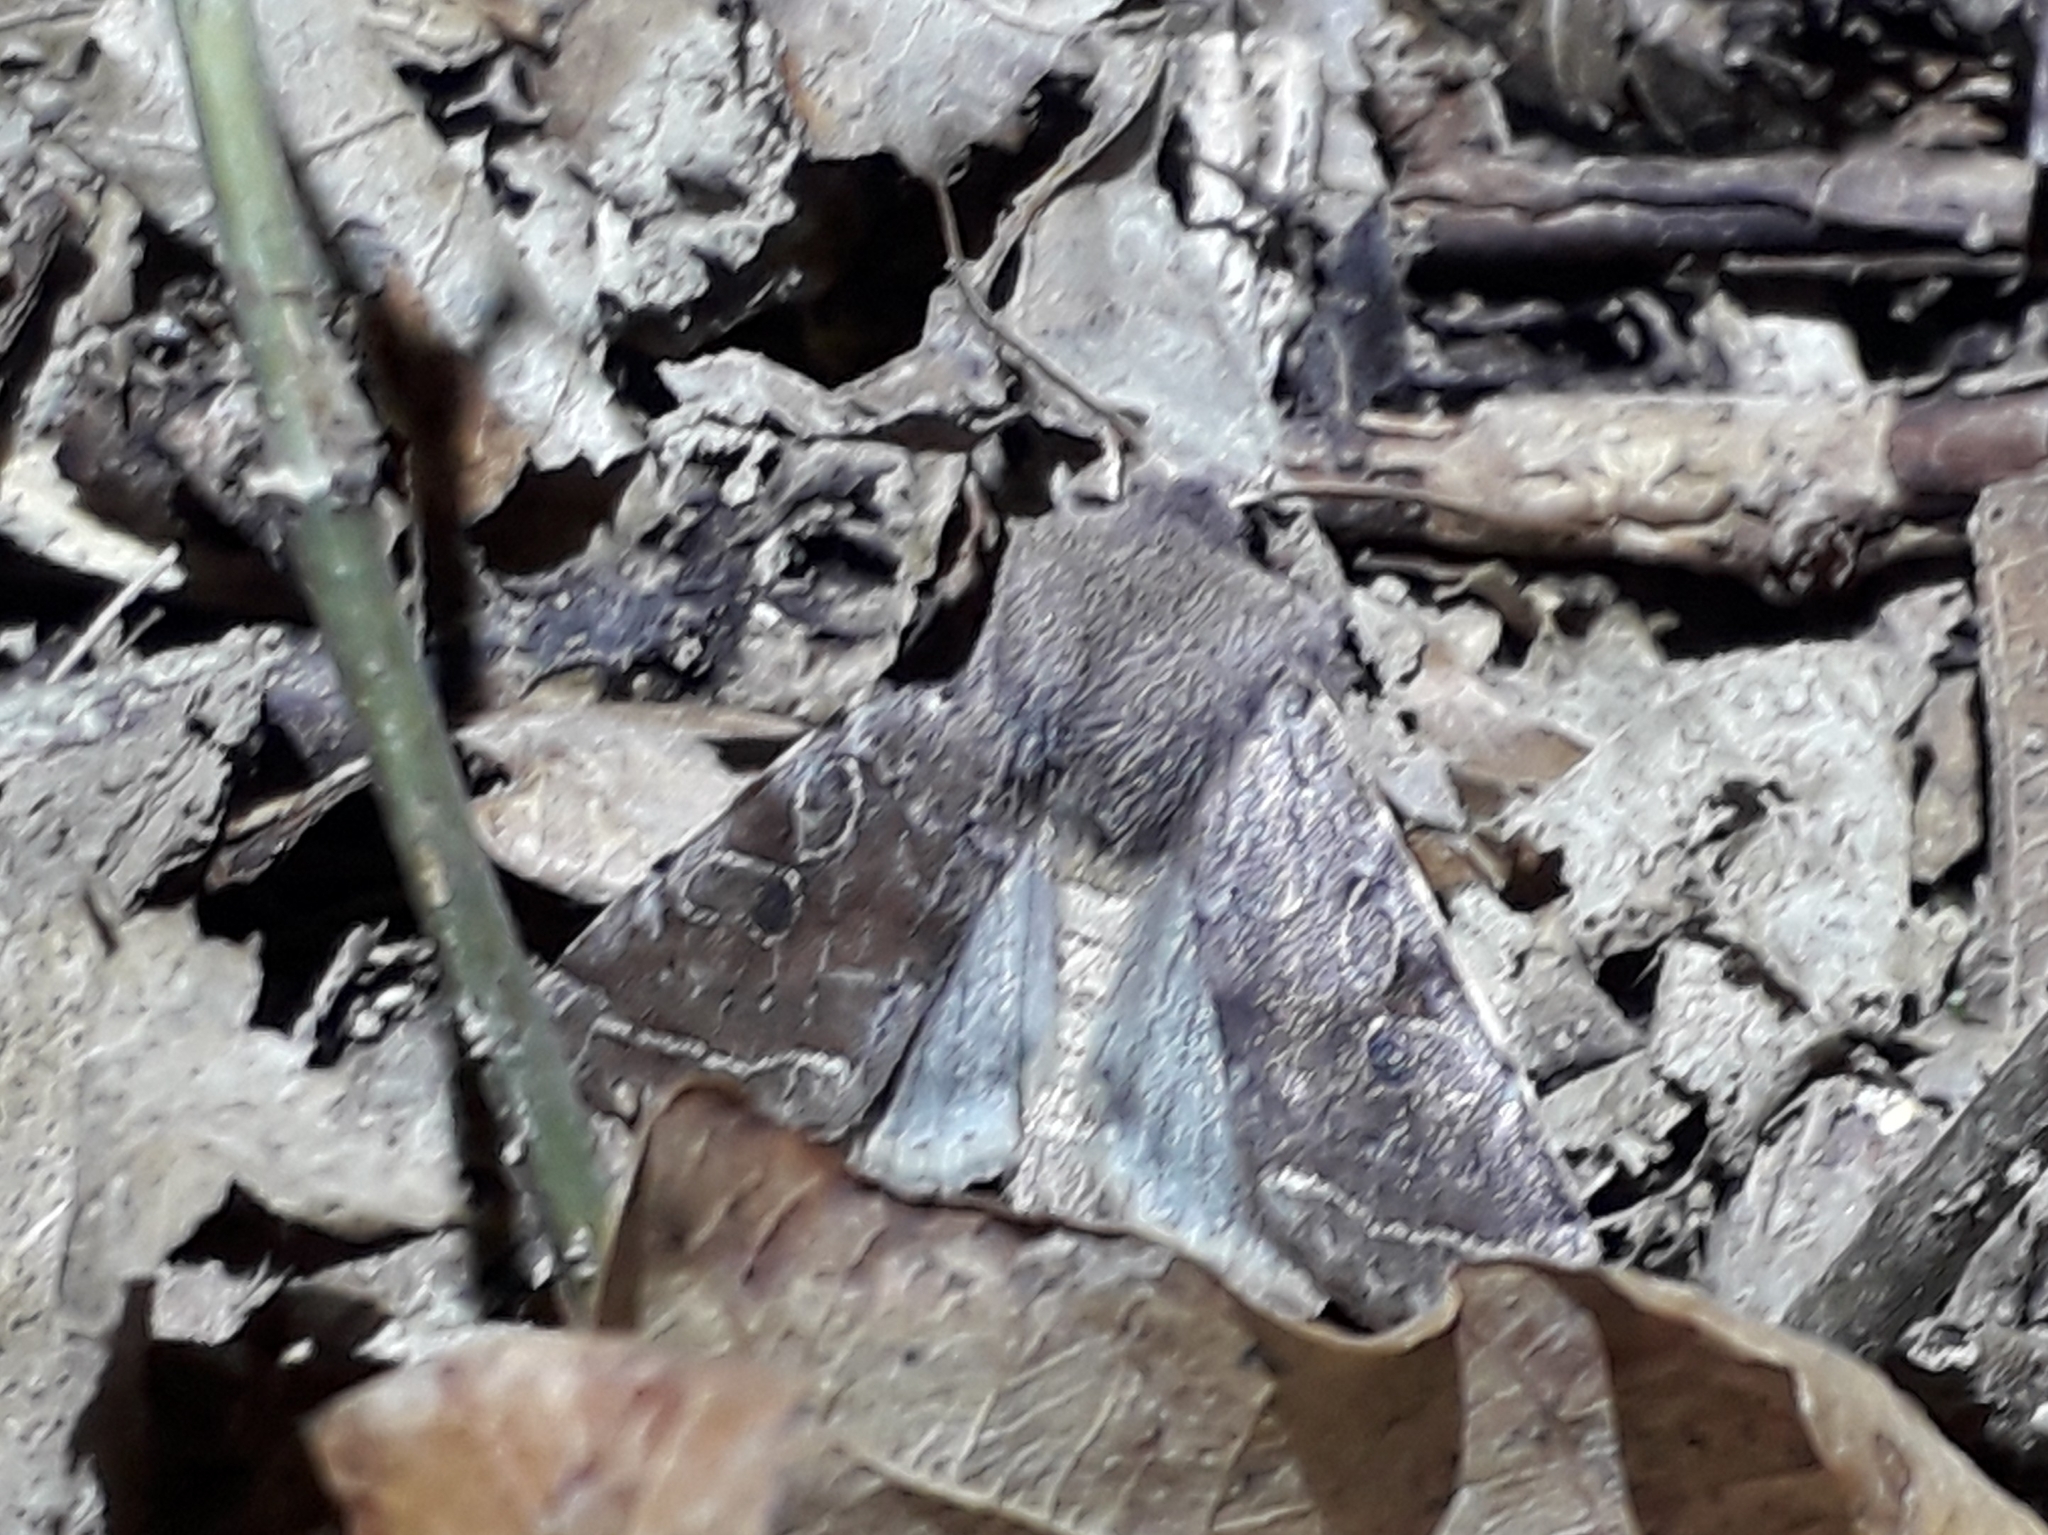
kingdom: Animalia
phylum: Arthropoda
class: Insecta
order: Lepidoptera
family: Noctuidae
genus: Orthosia
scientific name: Orthosia incerta
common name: Clouded drab
